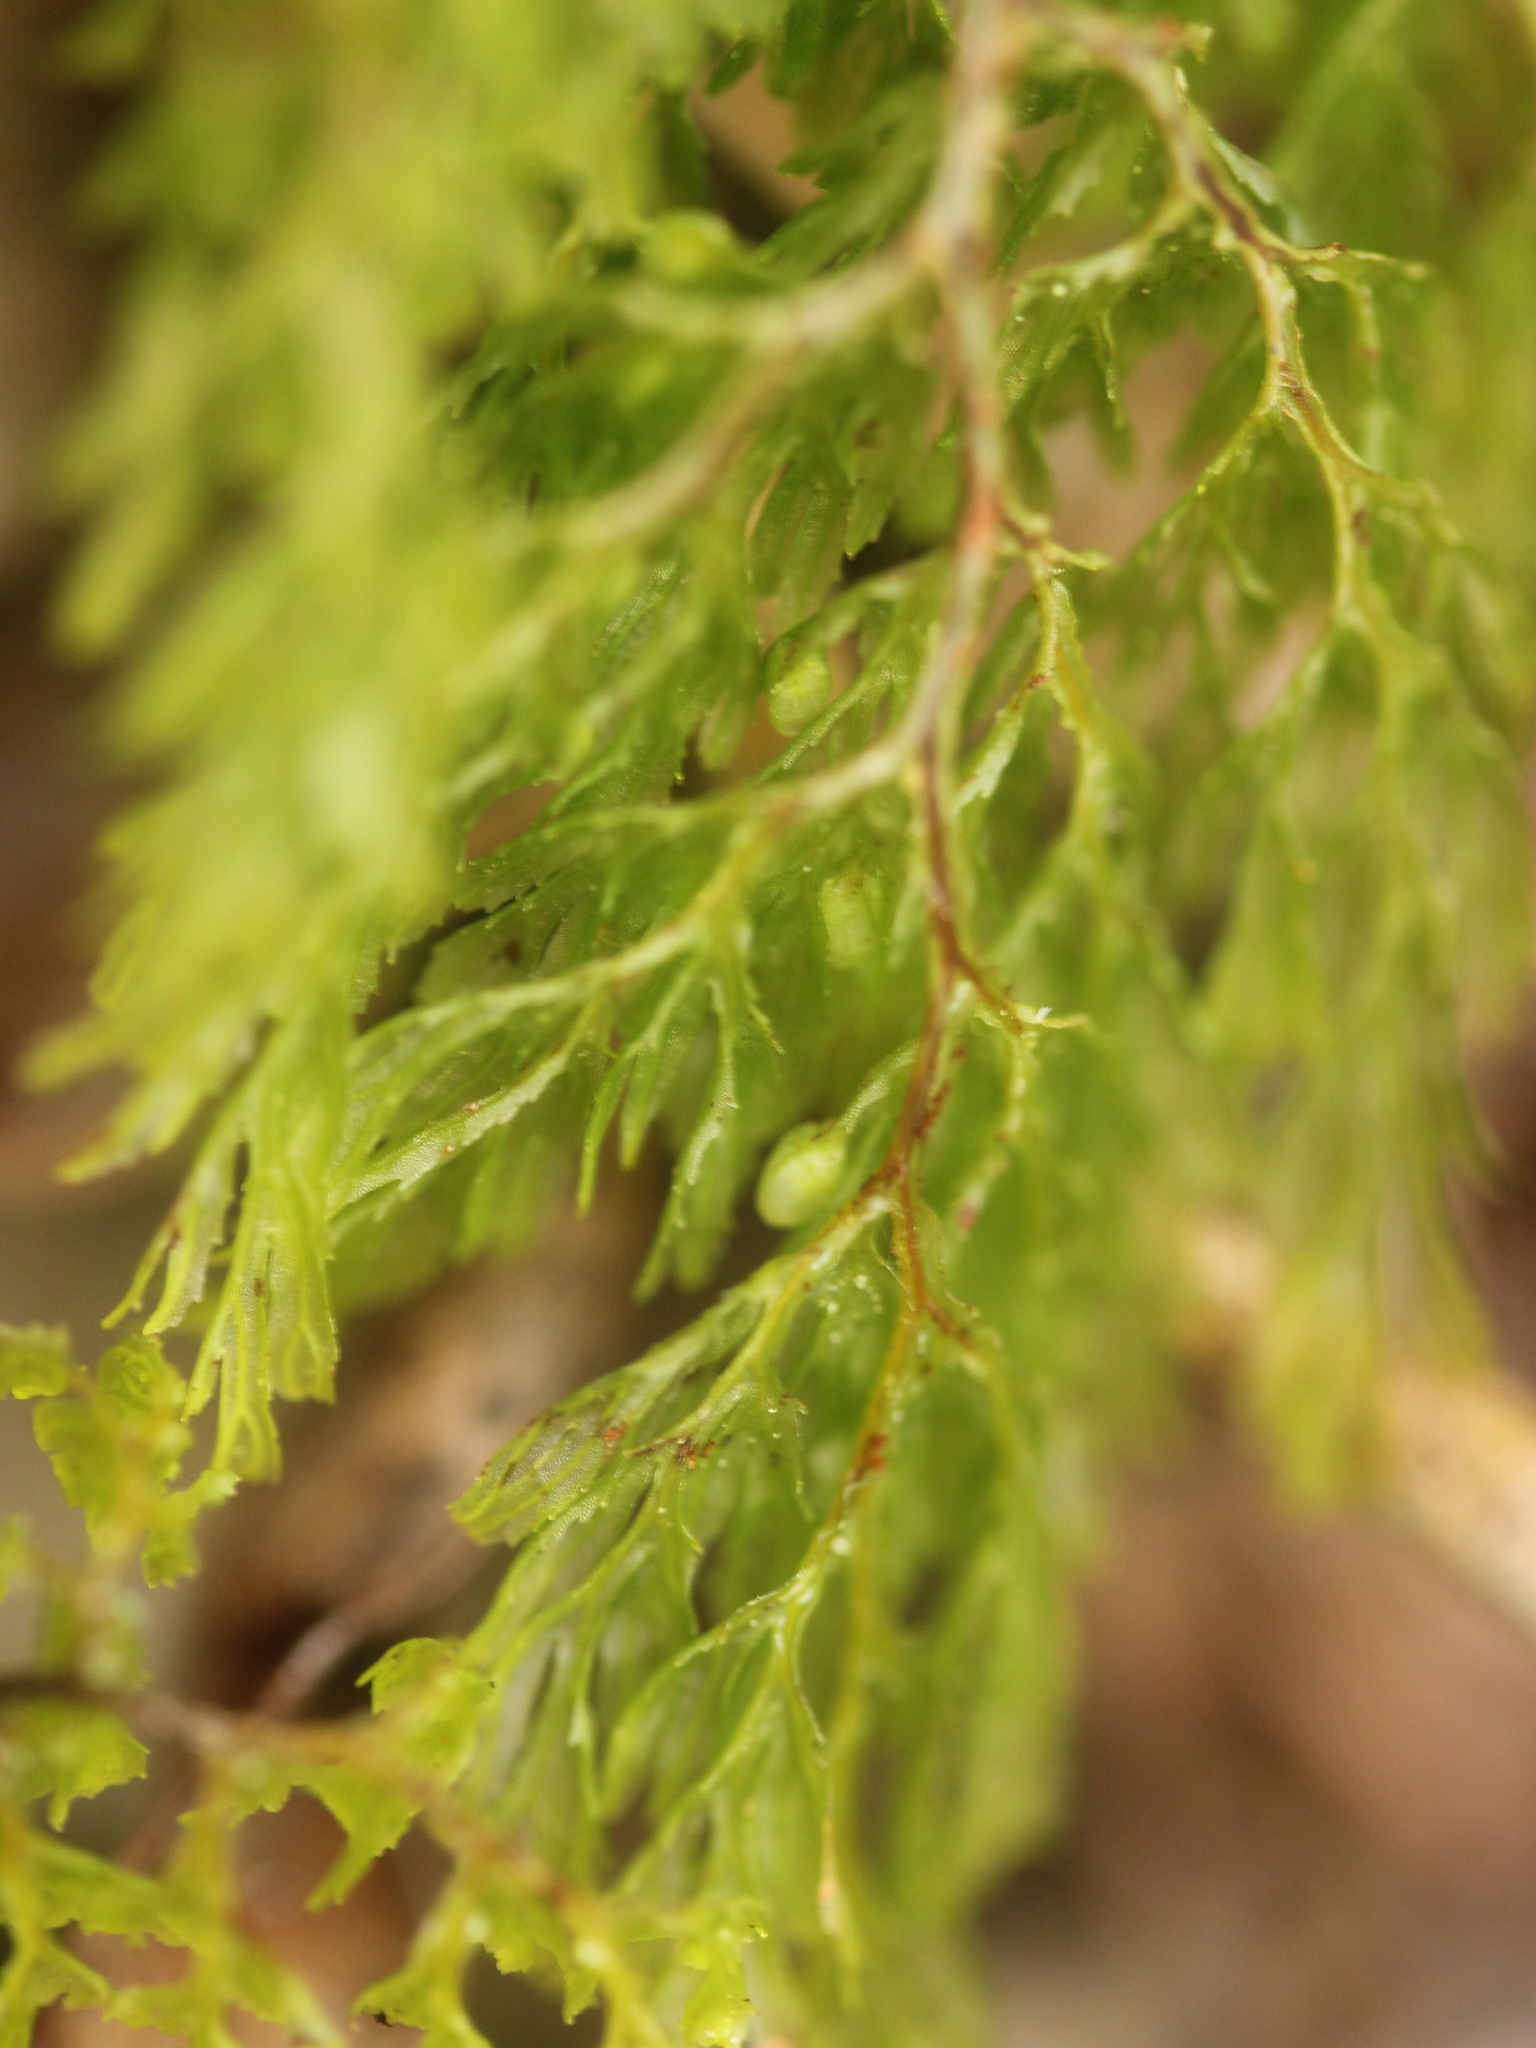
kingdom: Plantae
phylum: Tracheophyta
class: Polypodiopsida
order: Hymenophyllales
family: Hymenophyllaceae
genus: Hymenophyllum
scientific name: Hymenophyllum multifidum
